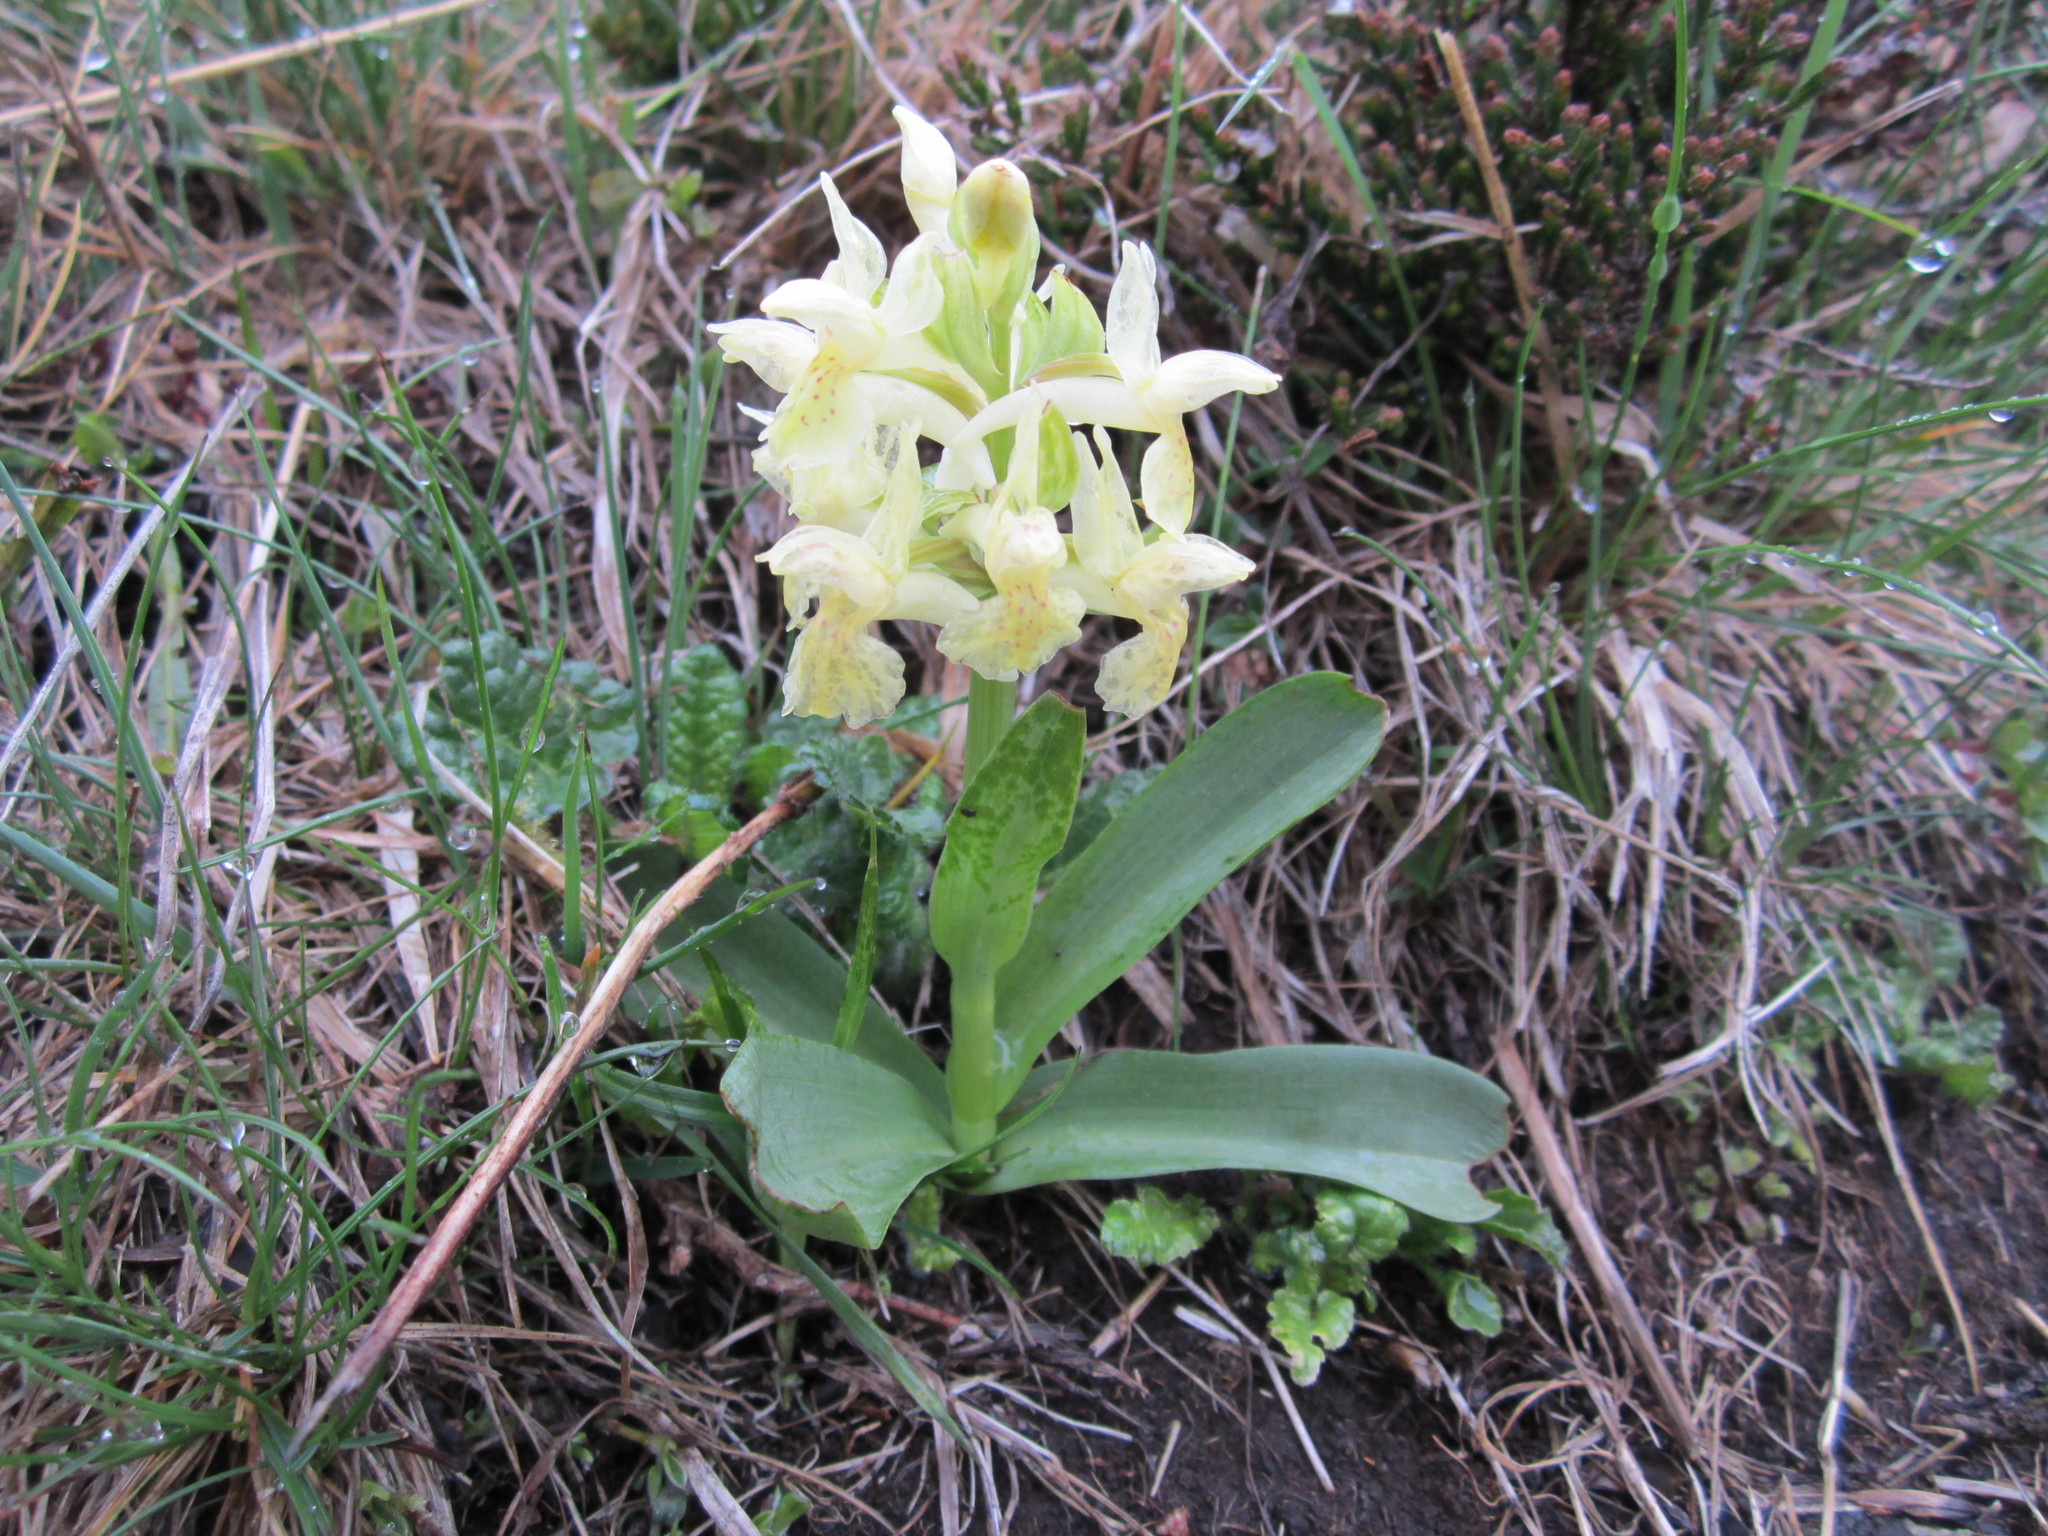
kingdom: Plantae
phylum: Tracheophyta
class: Liliopsida
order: Asparagales
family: Orchidaceae
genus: Dactylorhiza
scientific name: Dactylorhiza sambucina
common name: Elder-flowered orchid
